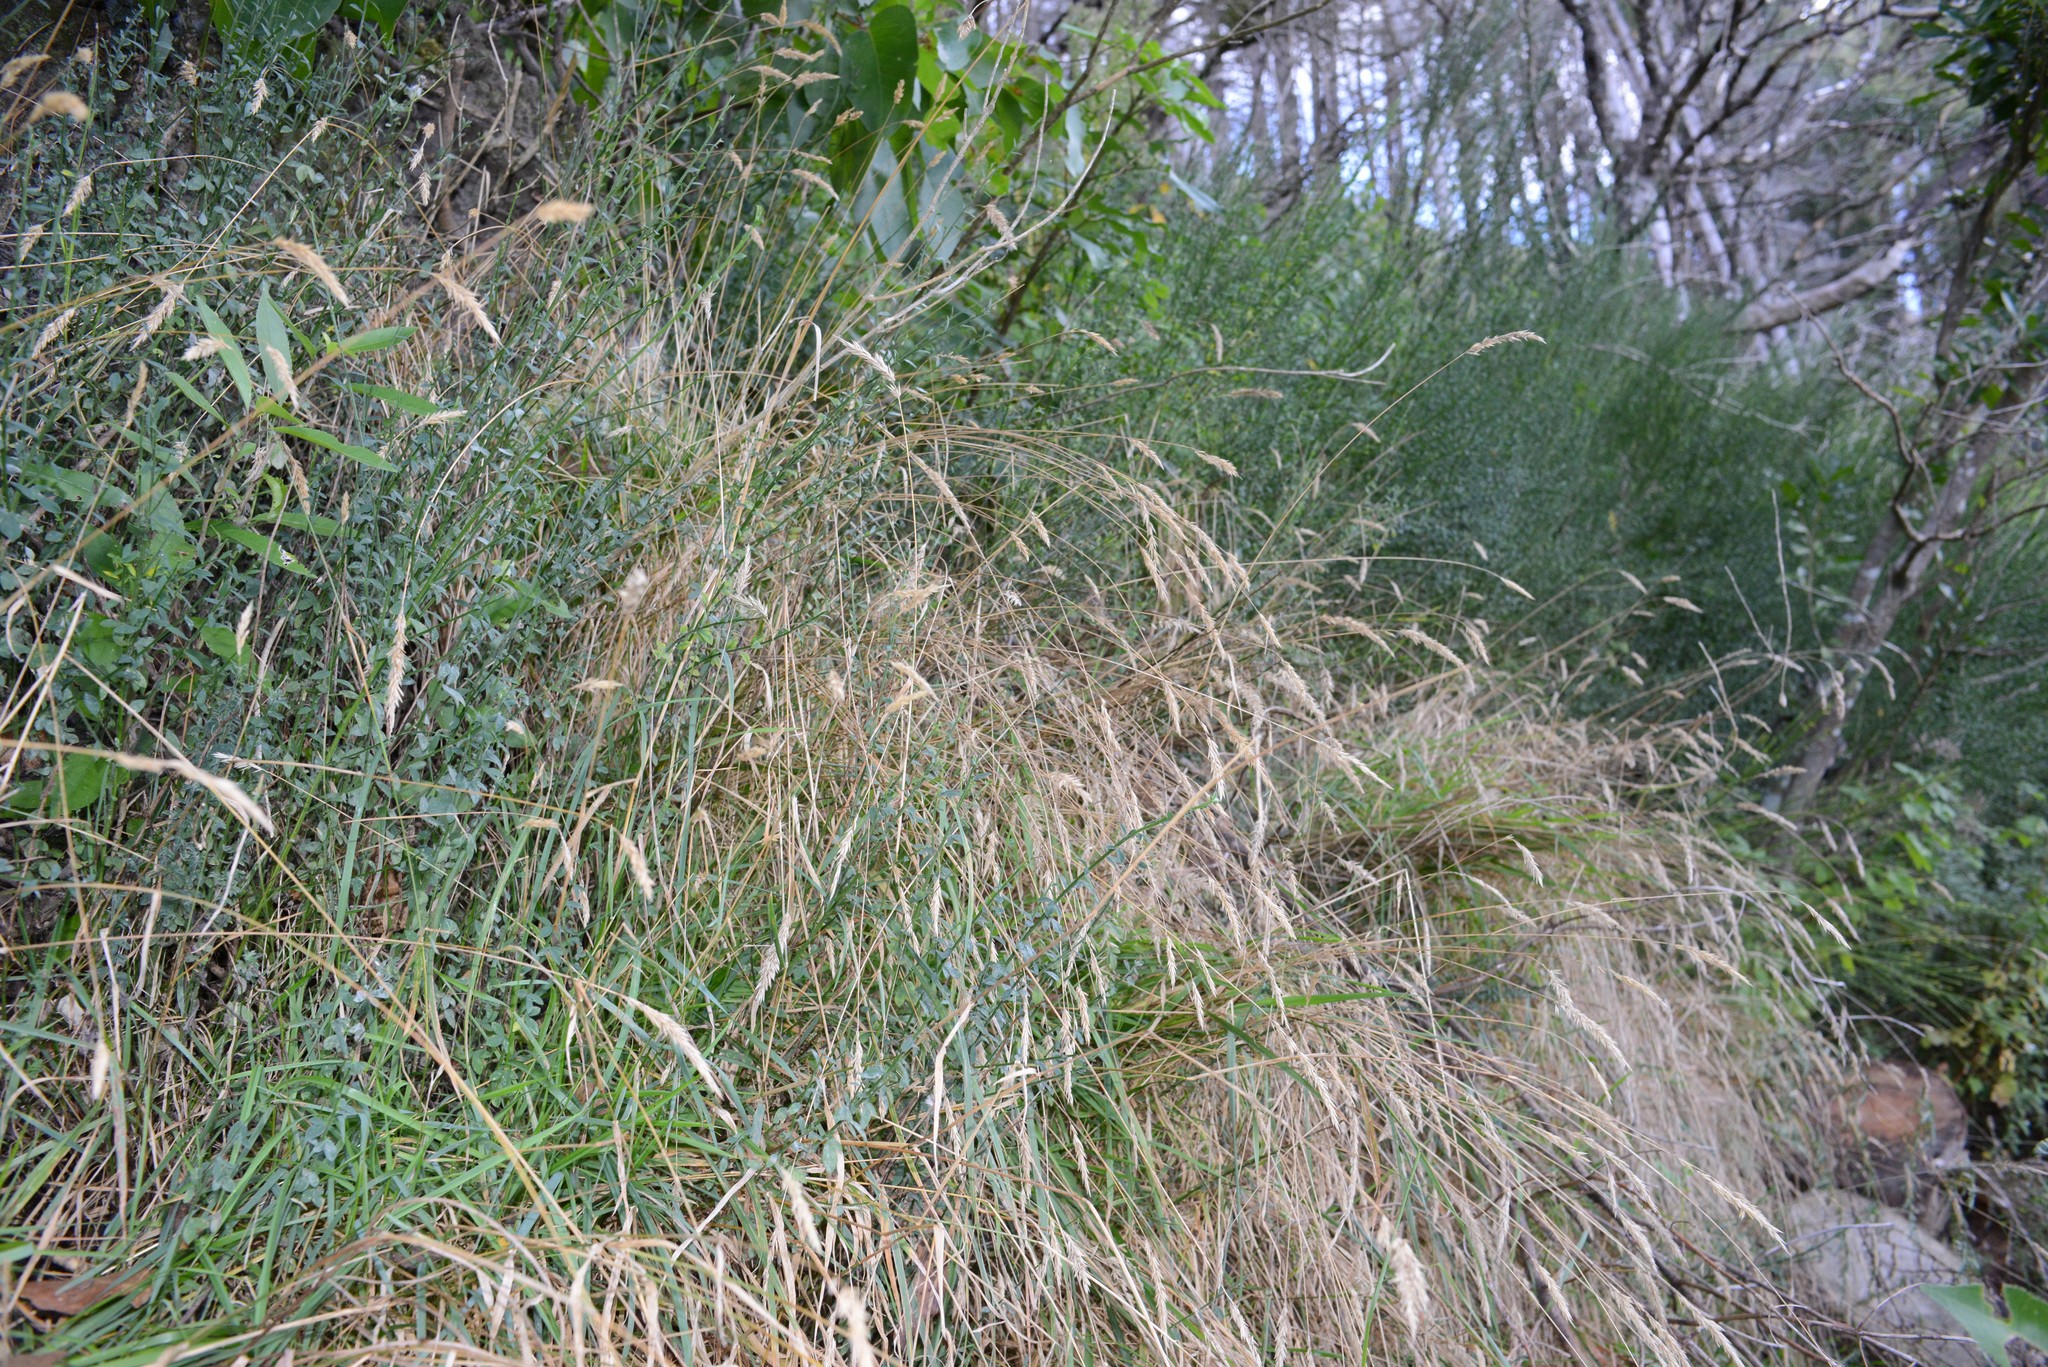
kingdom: Plantae
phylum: Tracheophyta
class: Magnoliopsida
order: Fabales
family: Fabaceae
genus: Cytisus
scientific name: Cytisus scoparius
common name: Scotch broom
